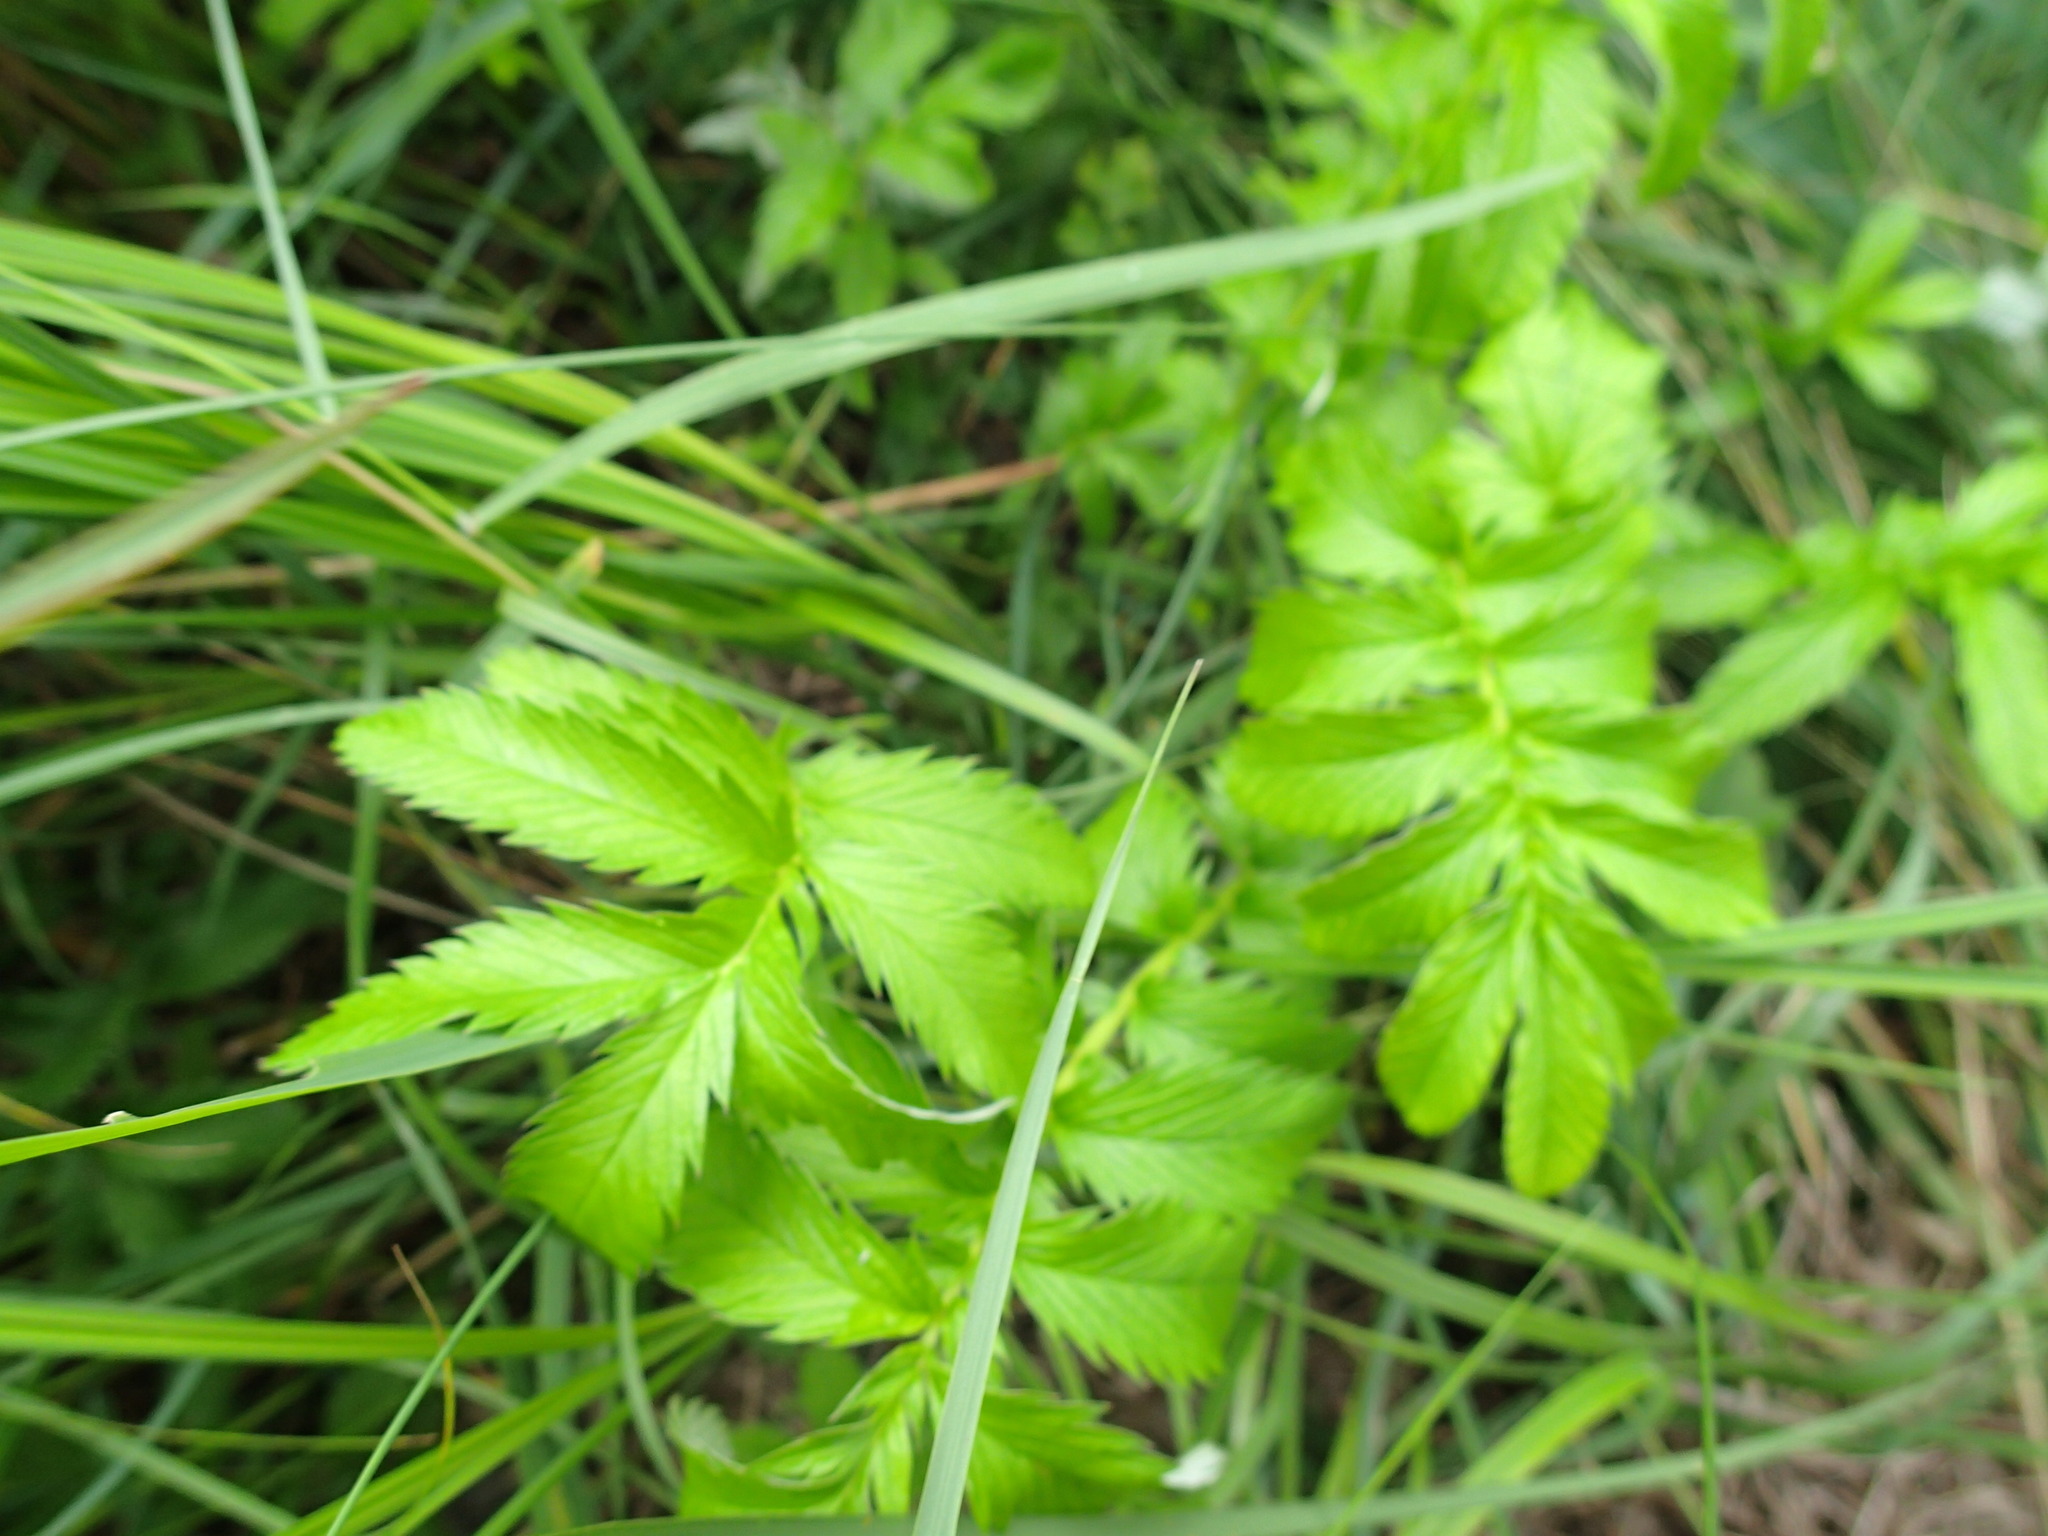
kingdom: Plantae
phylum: Tracheophyta
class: Magnoliopsida
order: Rosales
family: Rosaceae
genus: Argentina
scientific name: Argentina anserina
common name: Common silverweed
